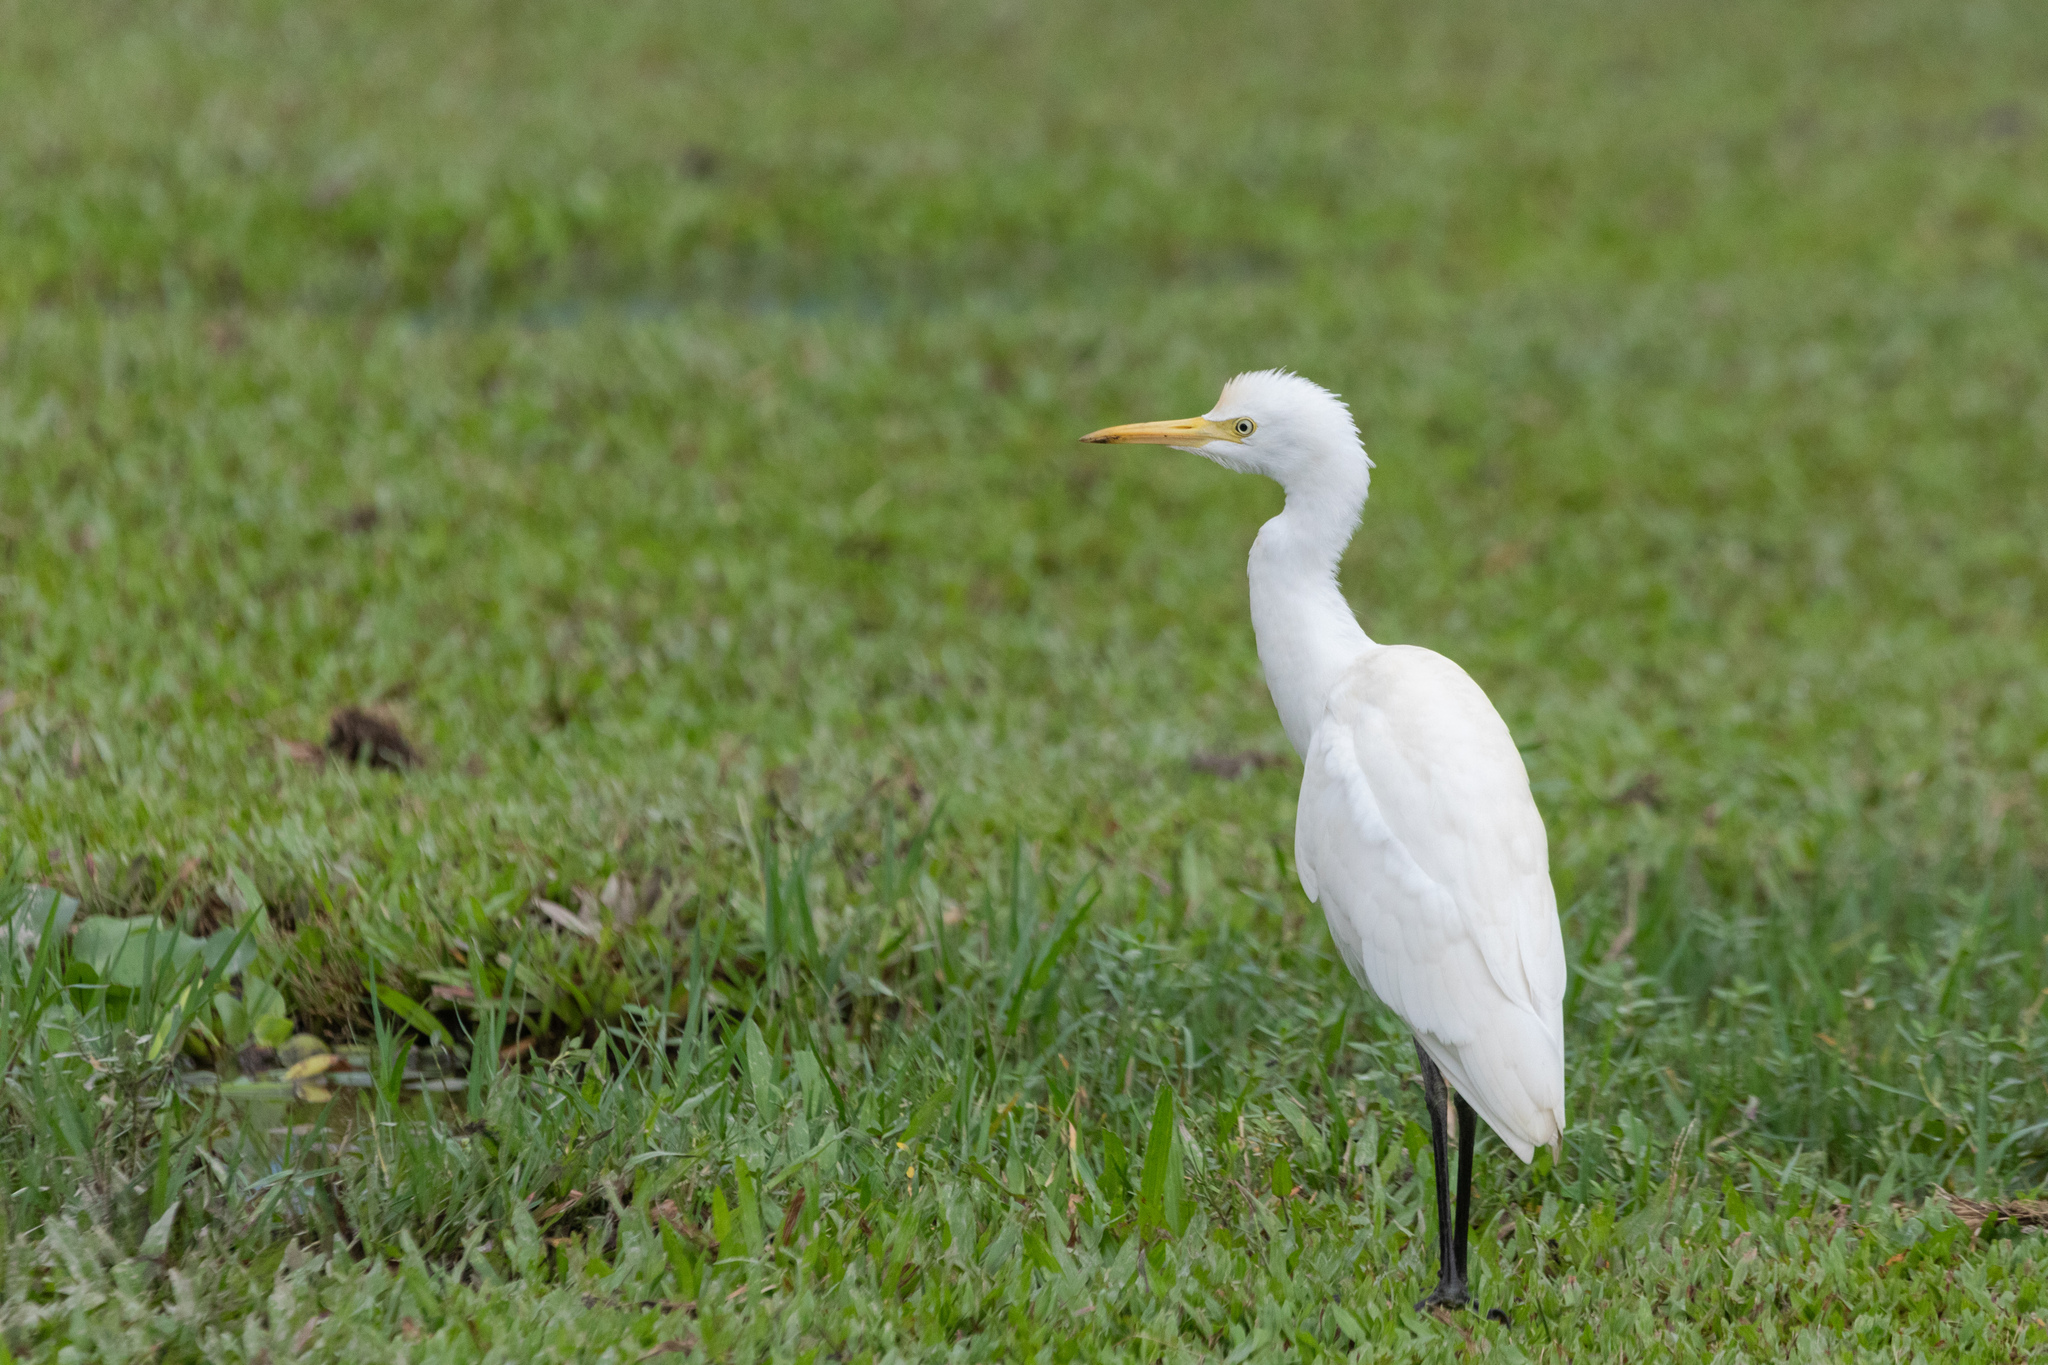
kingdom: Animalia
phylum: Chordata
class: Aves
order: Pelecaniformes
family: Ardeidae
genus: Bubulcus
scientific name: Bubulcus coromandus
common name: Eastern cattle egret
